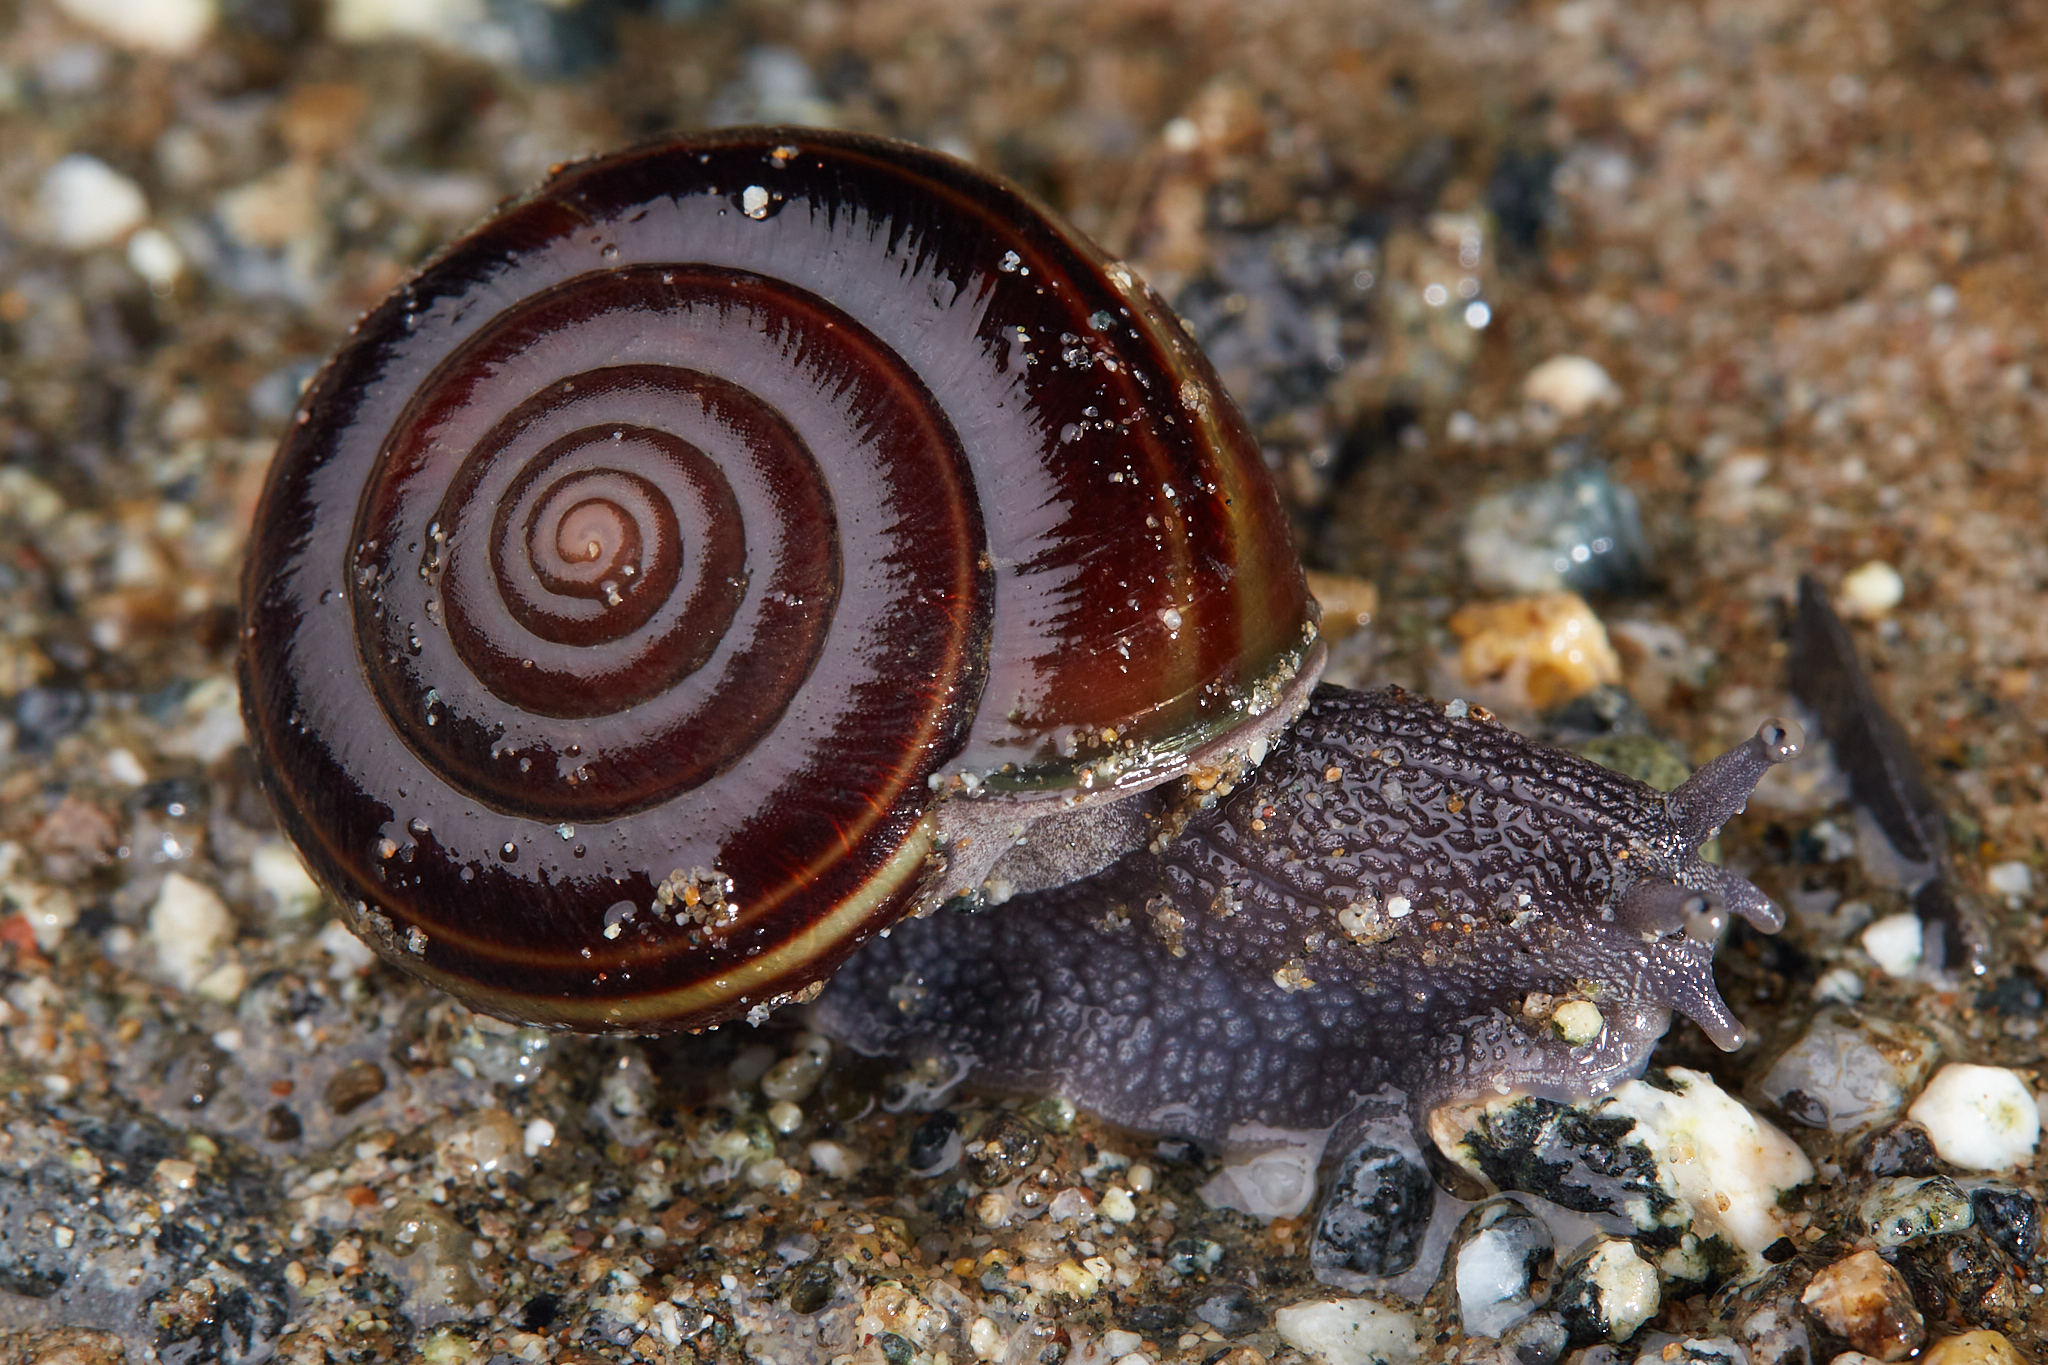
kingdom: Animalia
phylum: Mollusca
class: Gastropoda
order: Stylommatophora
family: Xanthonychidae
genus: Helminthoglypta
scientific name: Helminthoglypta sequoicola
